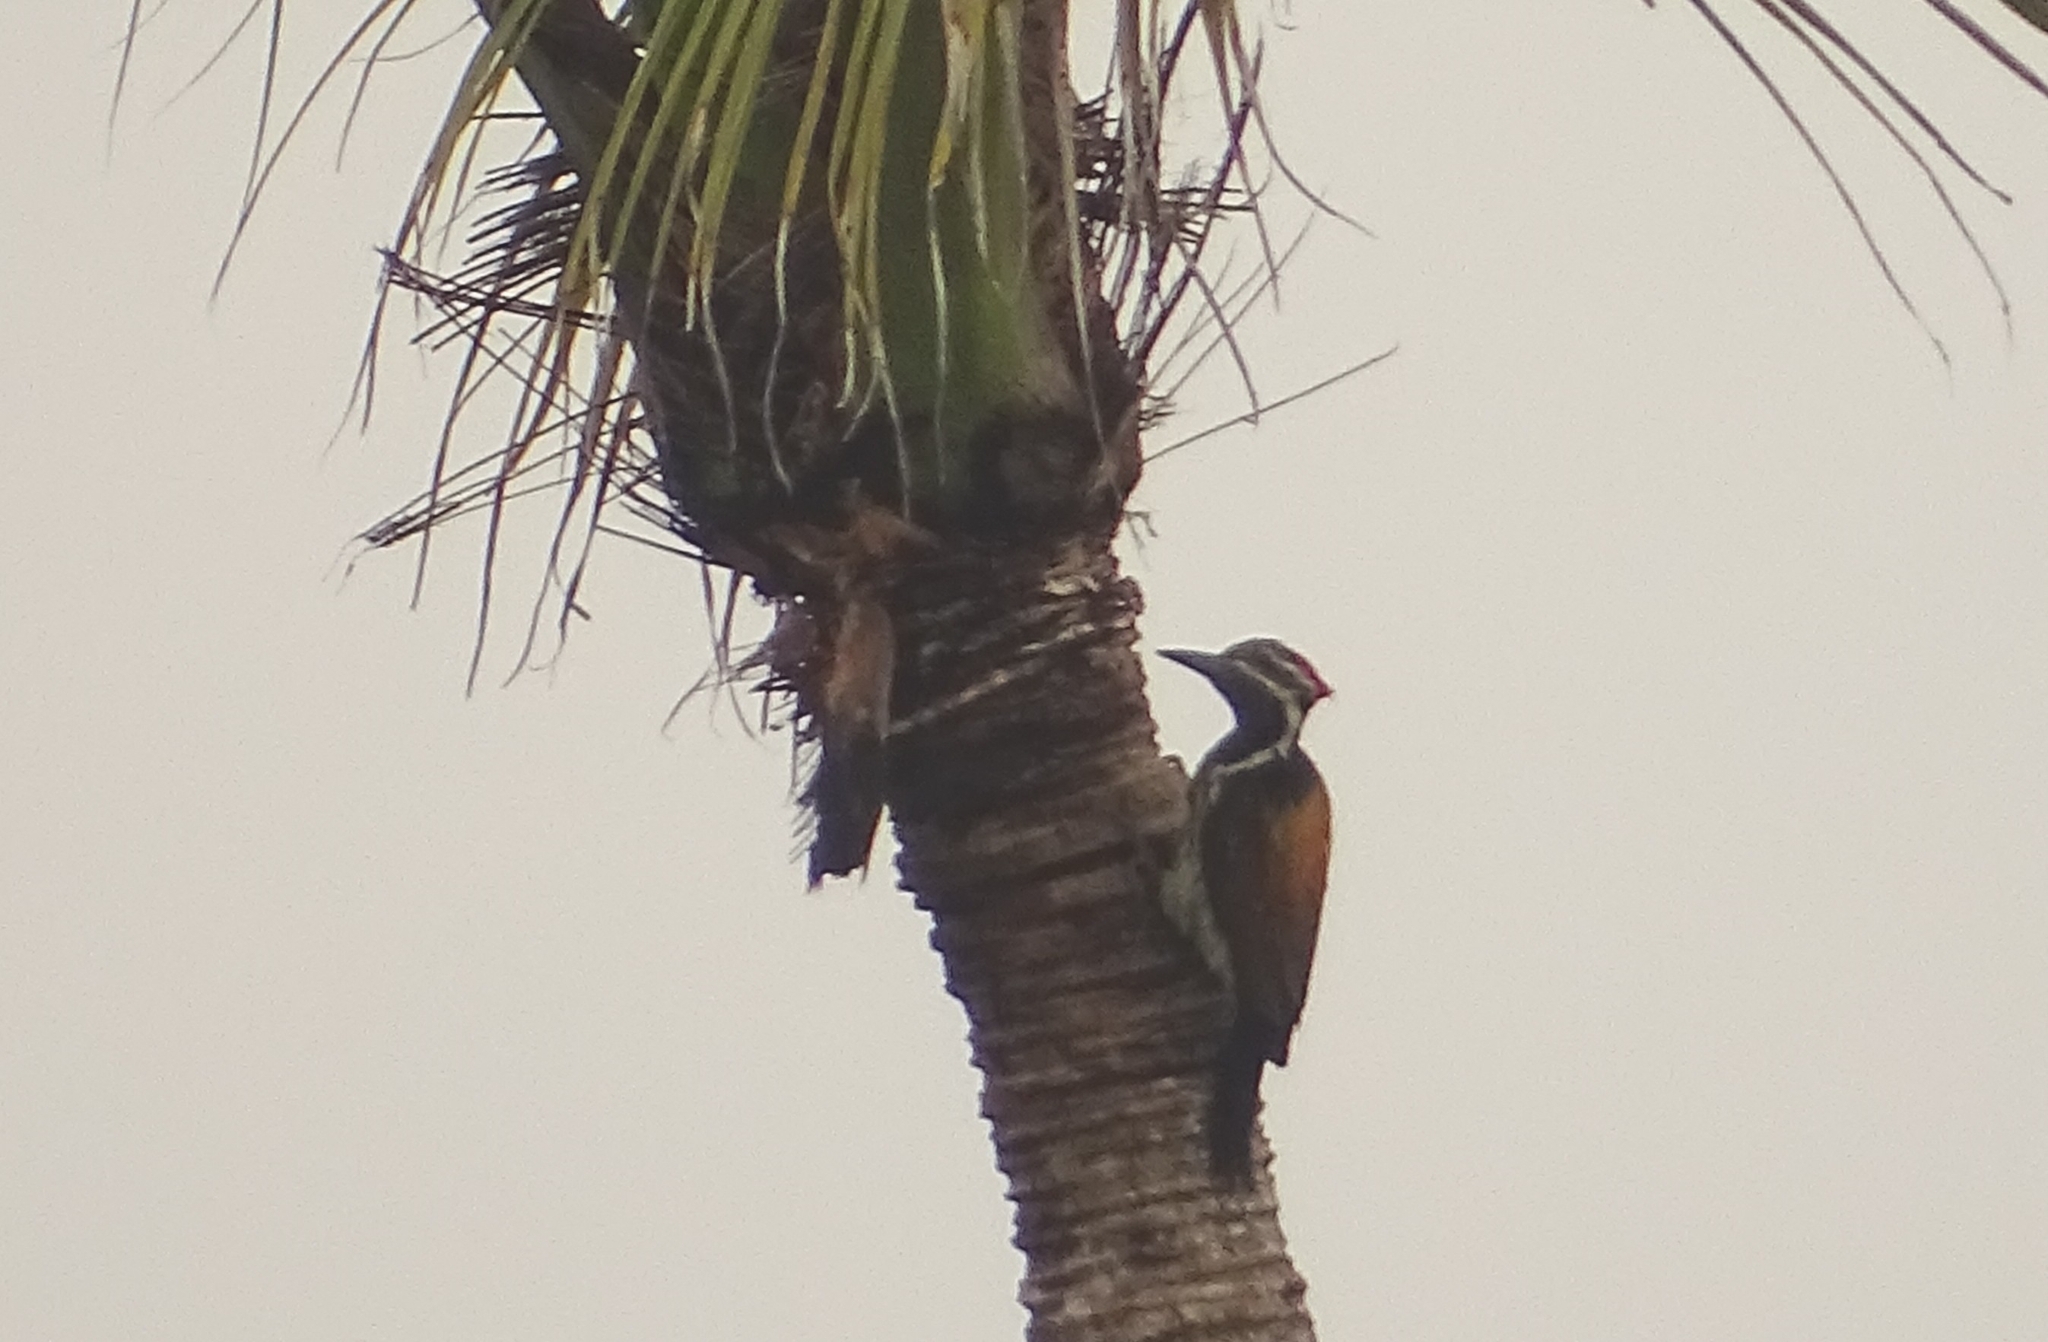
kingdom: Animalia
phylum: Chordata
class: Aves
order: Piciformes
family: Picidae
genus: Dinopium
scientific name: Dinopium benghalense
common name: Black-rumped flameback
